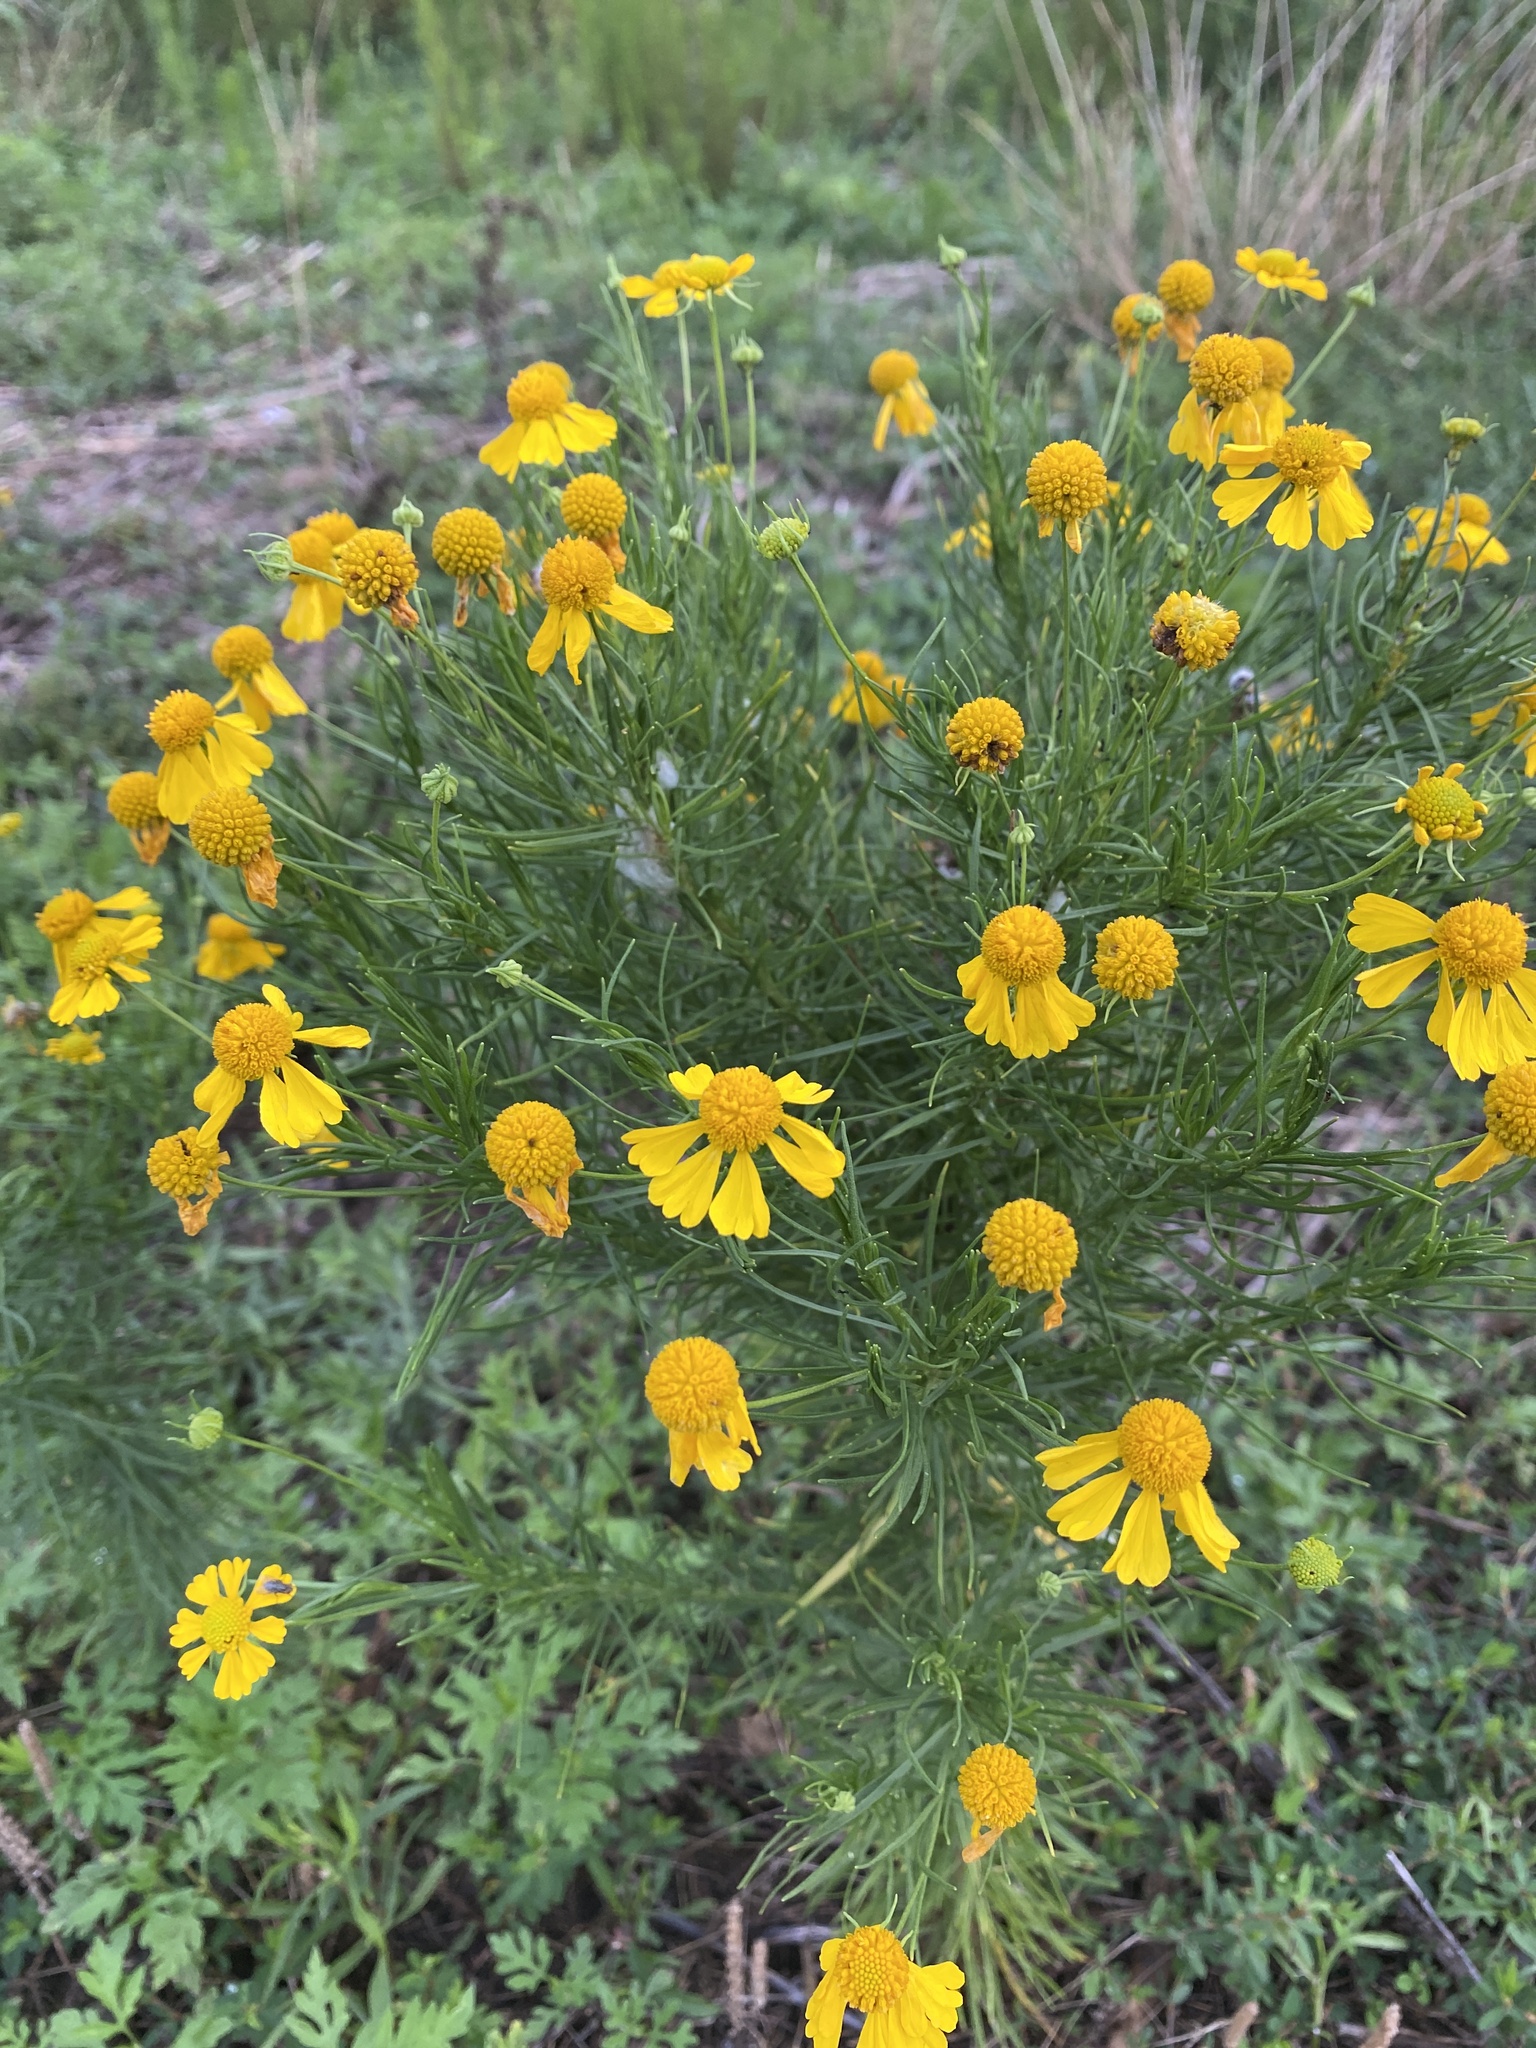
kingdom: Plantae
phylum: Tracheophyta
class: Magnoliopsida
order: Asterales
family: Asteraceae
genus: Helenium
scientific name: Helenium amarum
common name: Bitter sneezeweed
